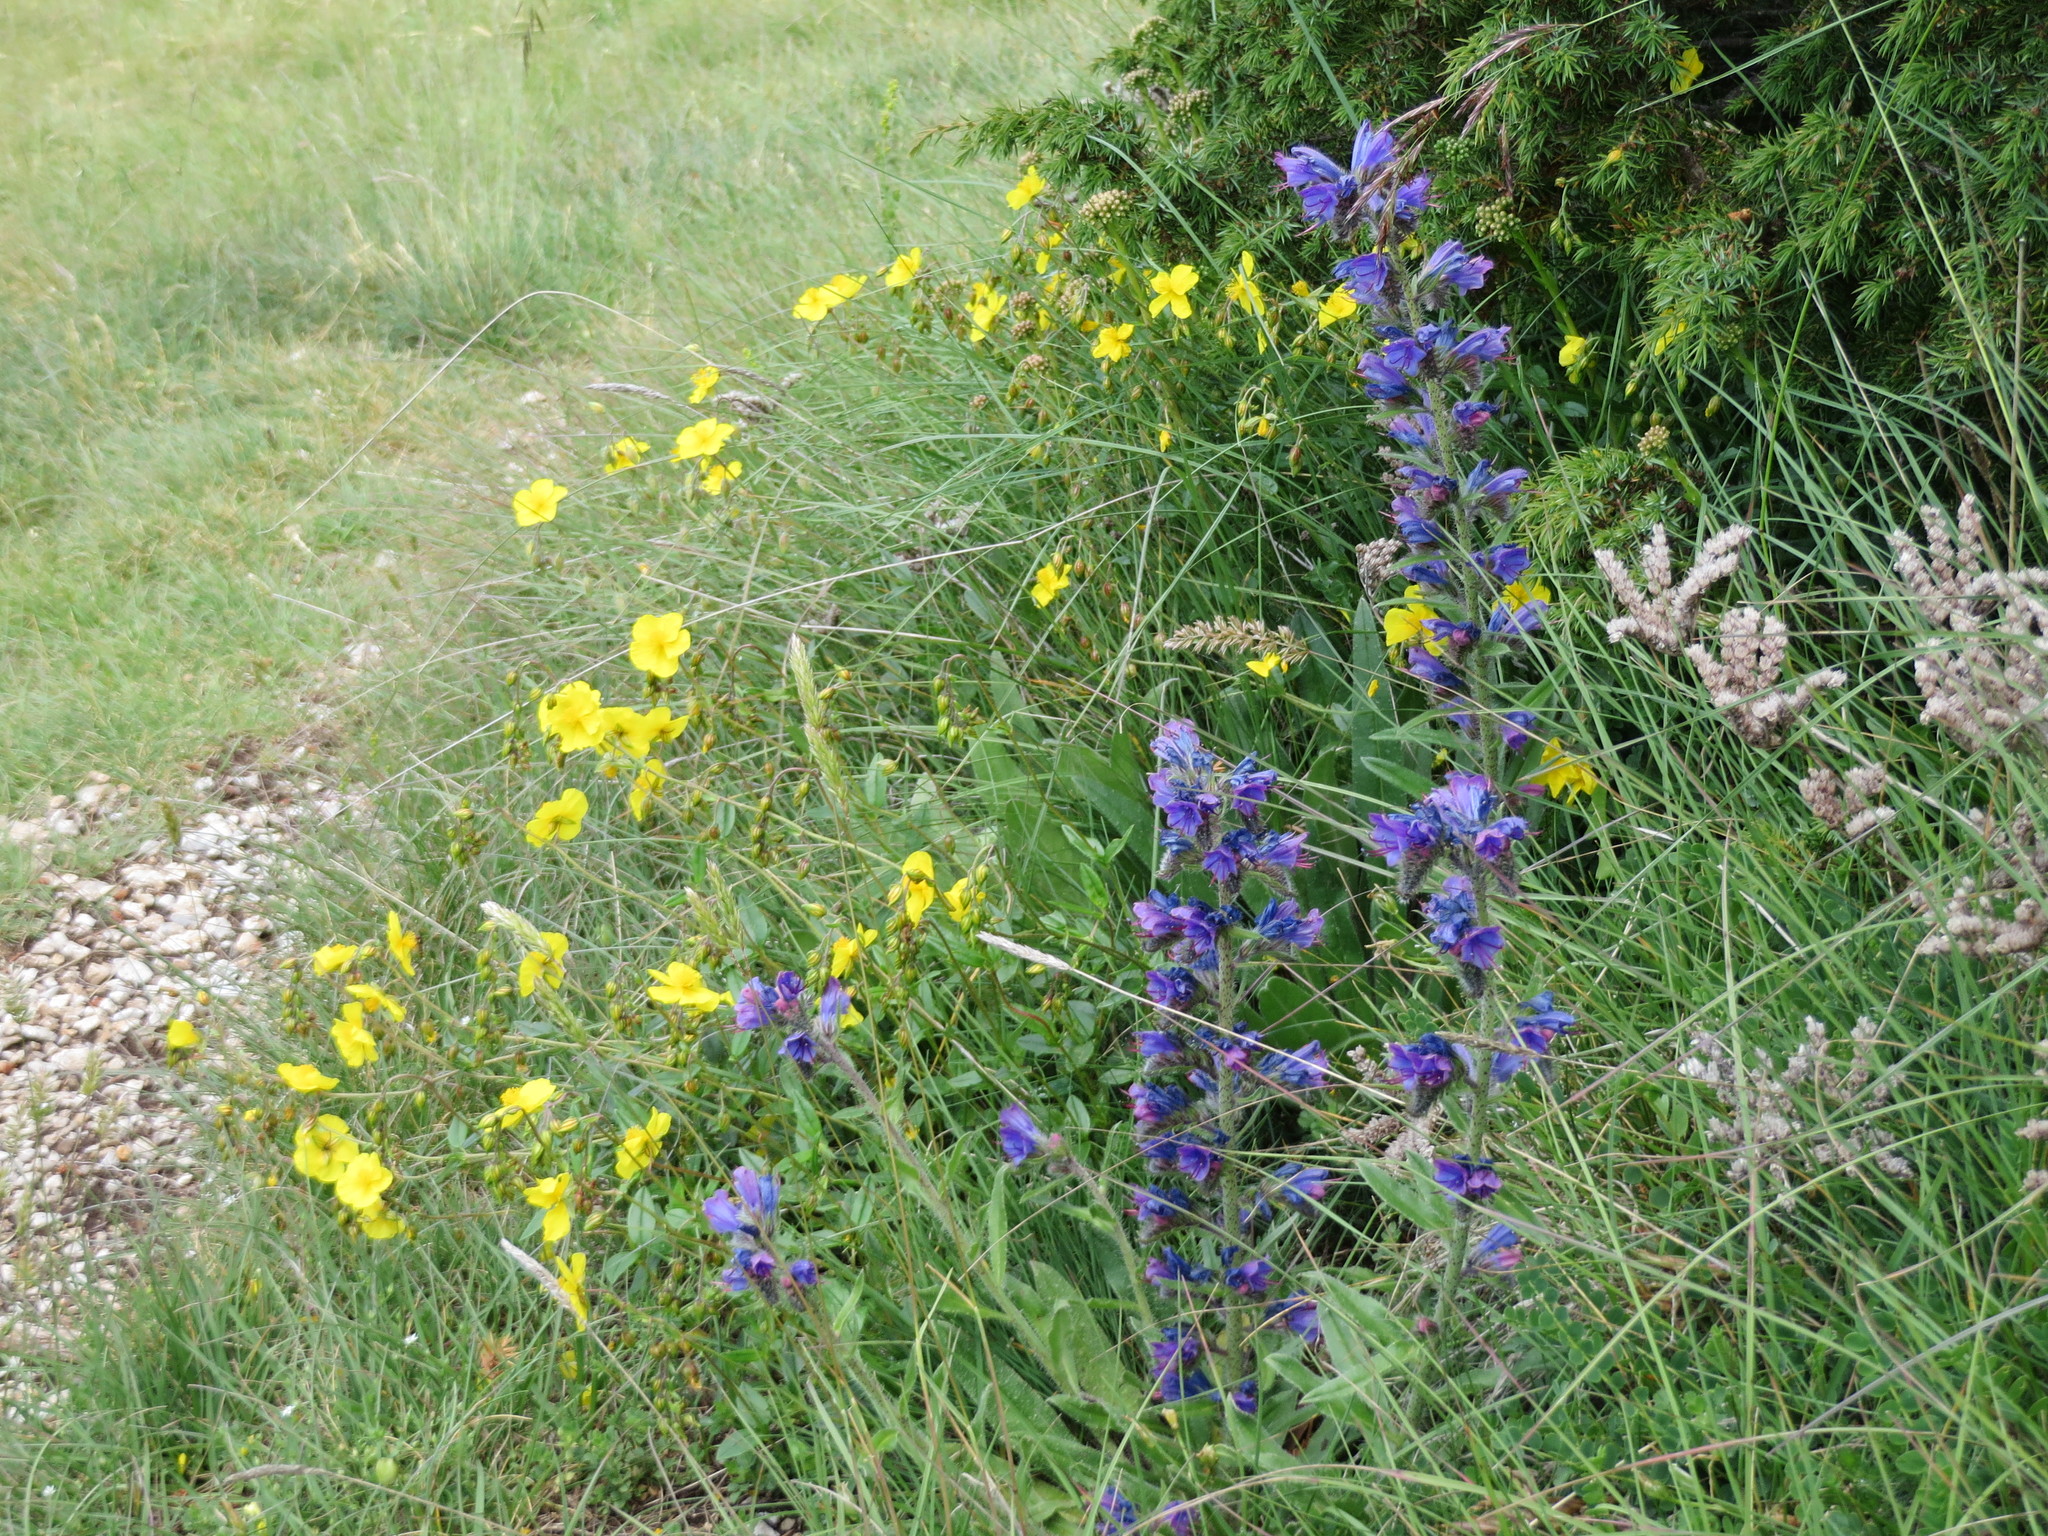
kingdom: Plantae
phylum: Tracheophyta
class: Magnoliopsida
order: Boraginales
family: Boraginaceae
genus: Echium
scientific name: Echium vulgare
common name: Common viper's bugloss
